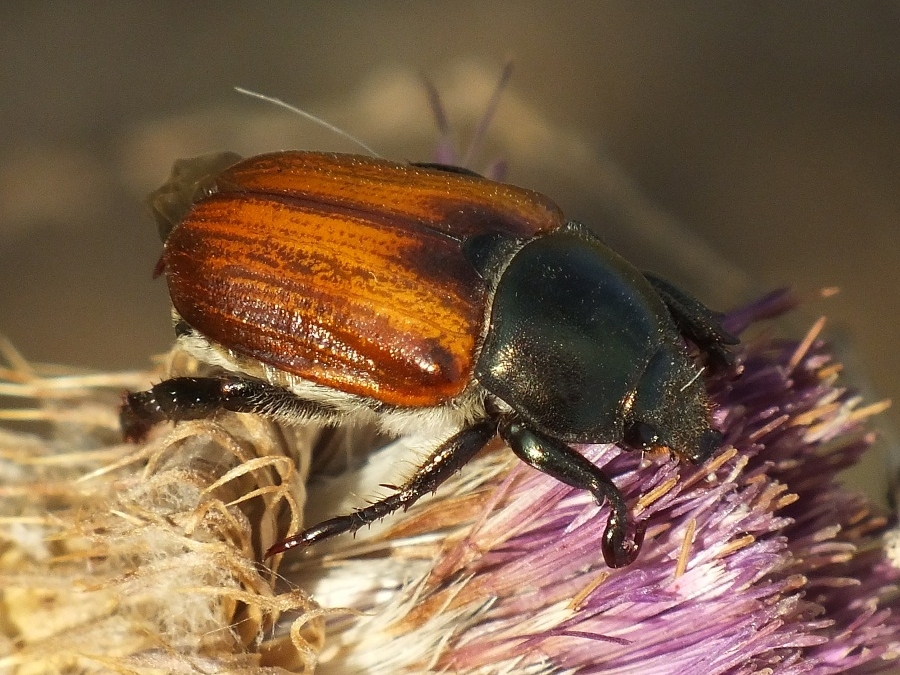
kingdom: Animalia
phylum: Arthropoda
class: Insecta
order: Coleoptera
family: Scarabaeidae
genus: Anisoplia
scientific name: Anisoplia austriaca
